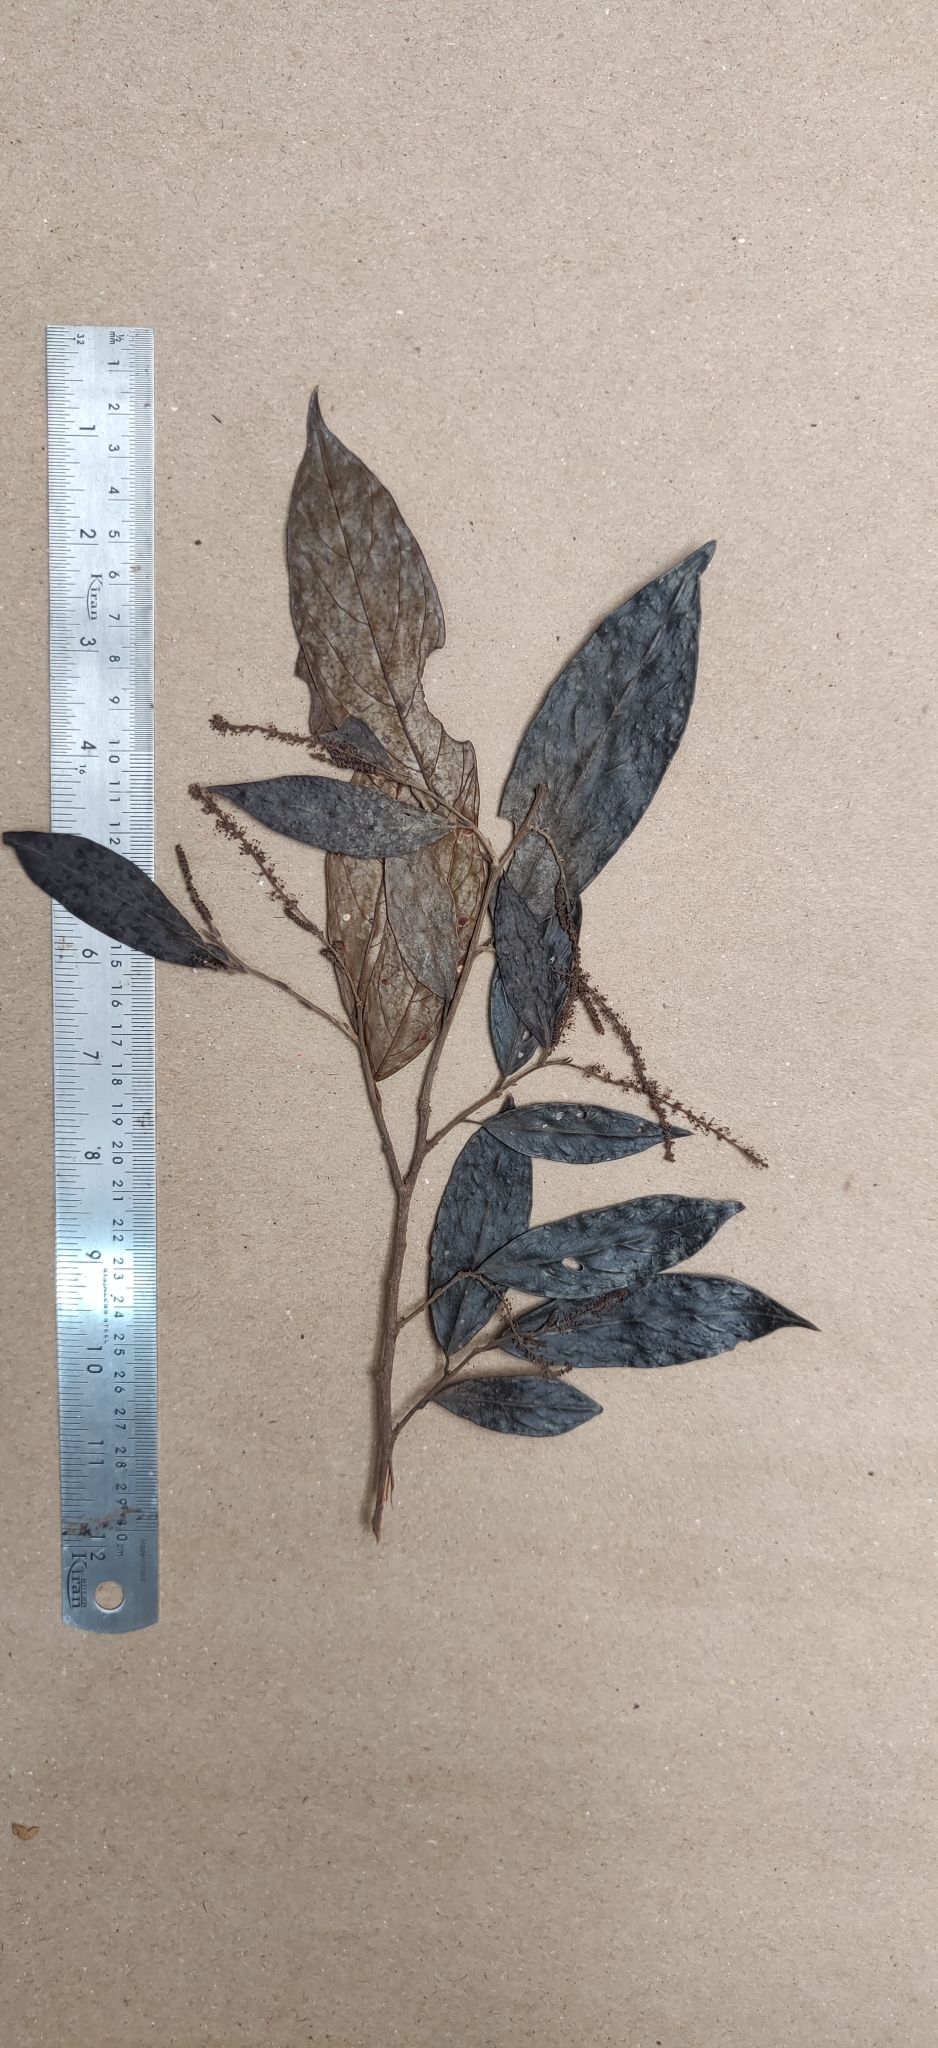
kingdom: Plantae
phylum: Tracheophyta
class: Magnoliopsida
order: Malpighiales
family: Phyllanthaceae
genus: Antidesma
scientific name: Antidesma montanum
